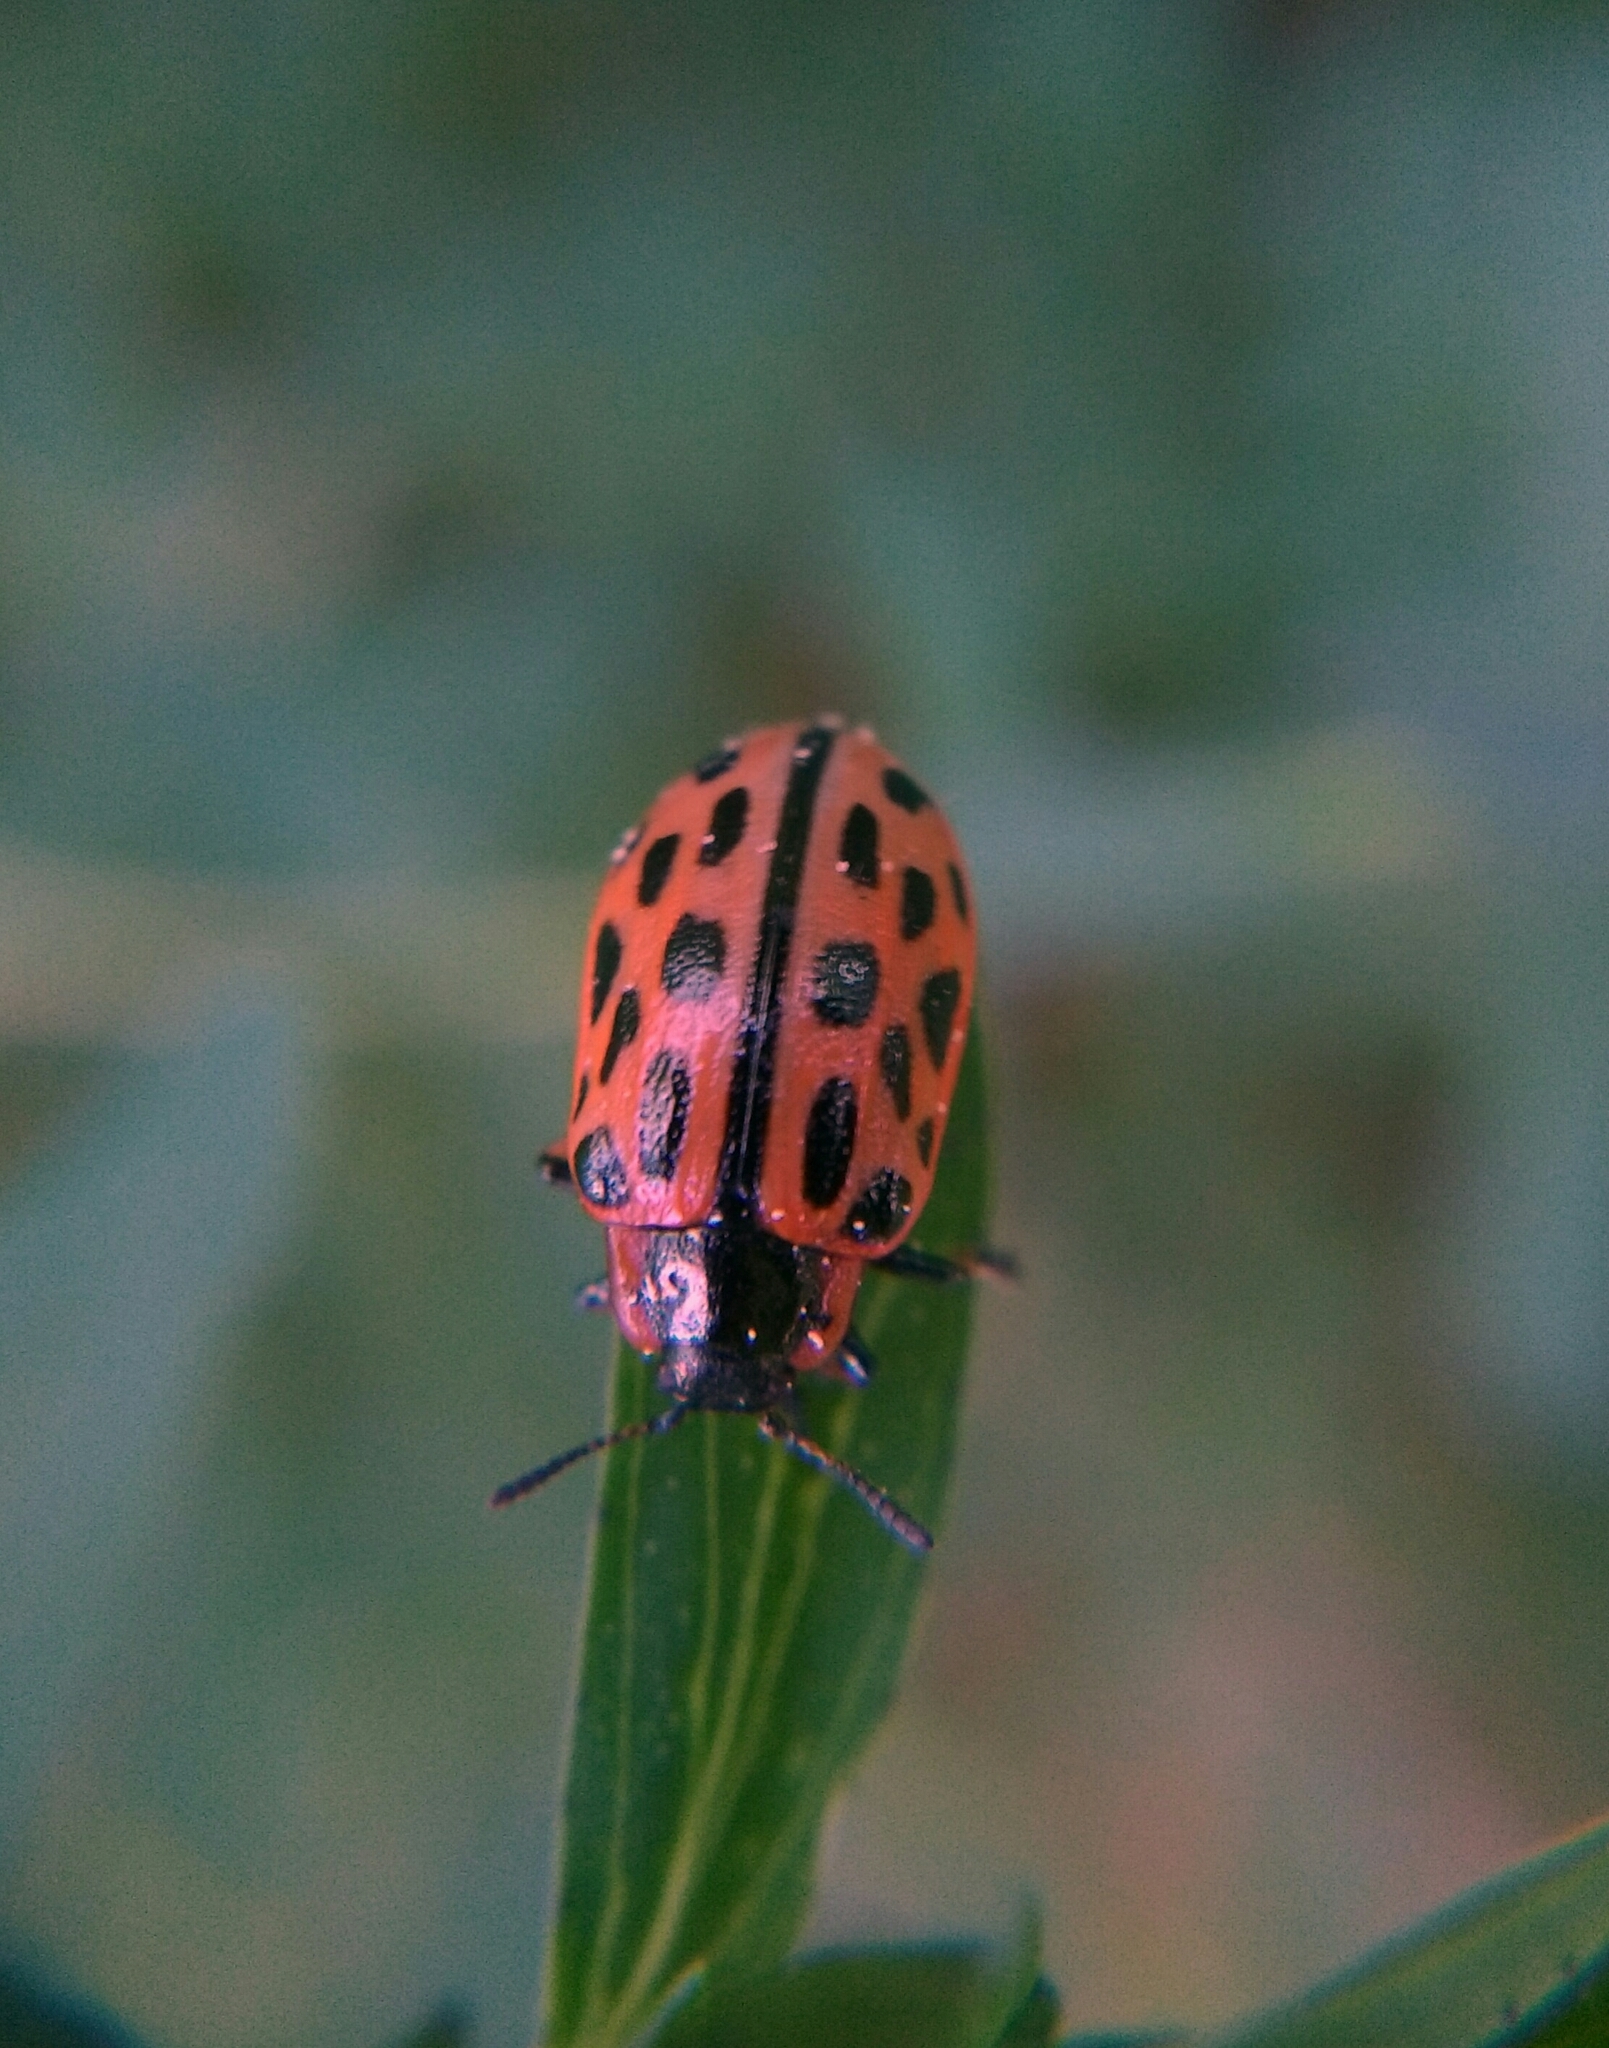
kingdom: Animalia
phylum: Arthropoda
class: Insecta
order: Coleoptera
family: Chrysomelidae
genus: Chrysomela
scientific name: Chrysomela vigintipunctata
